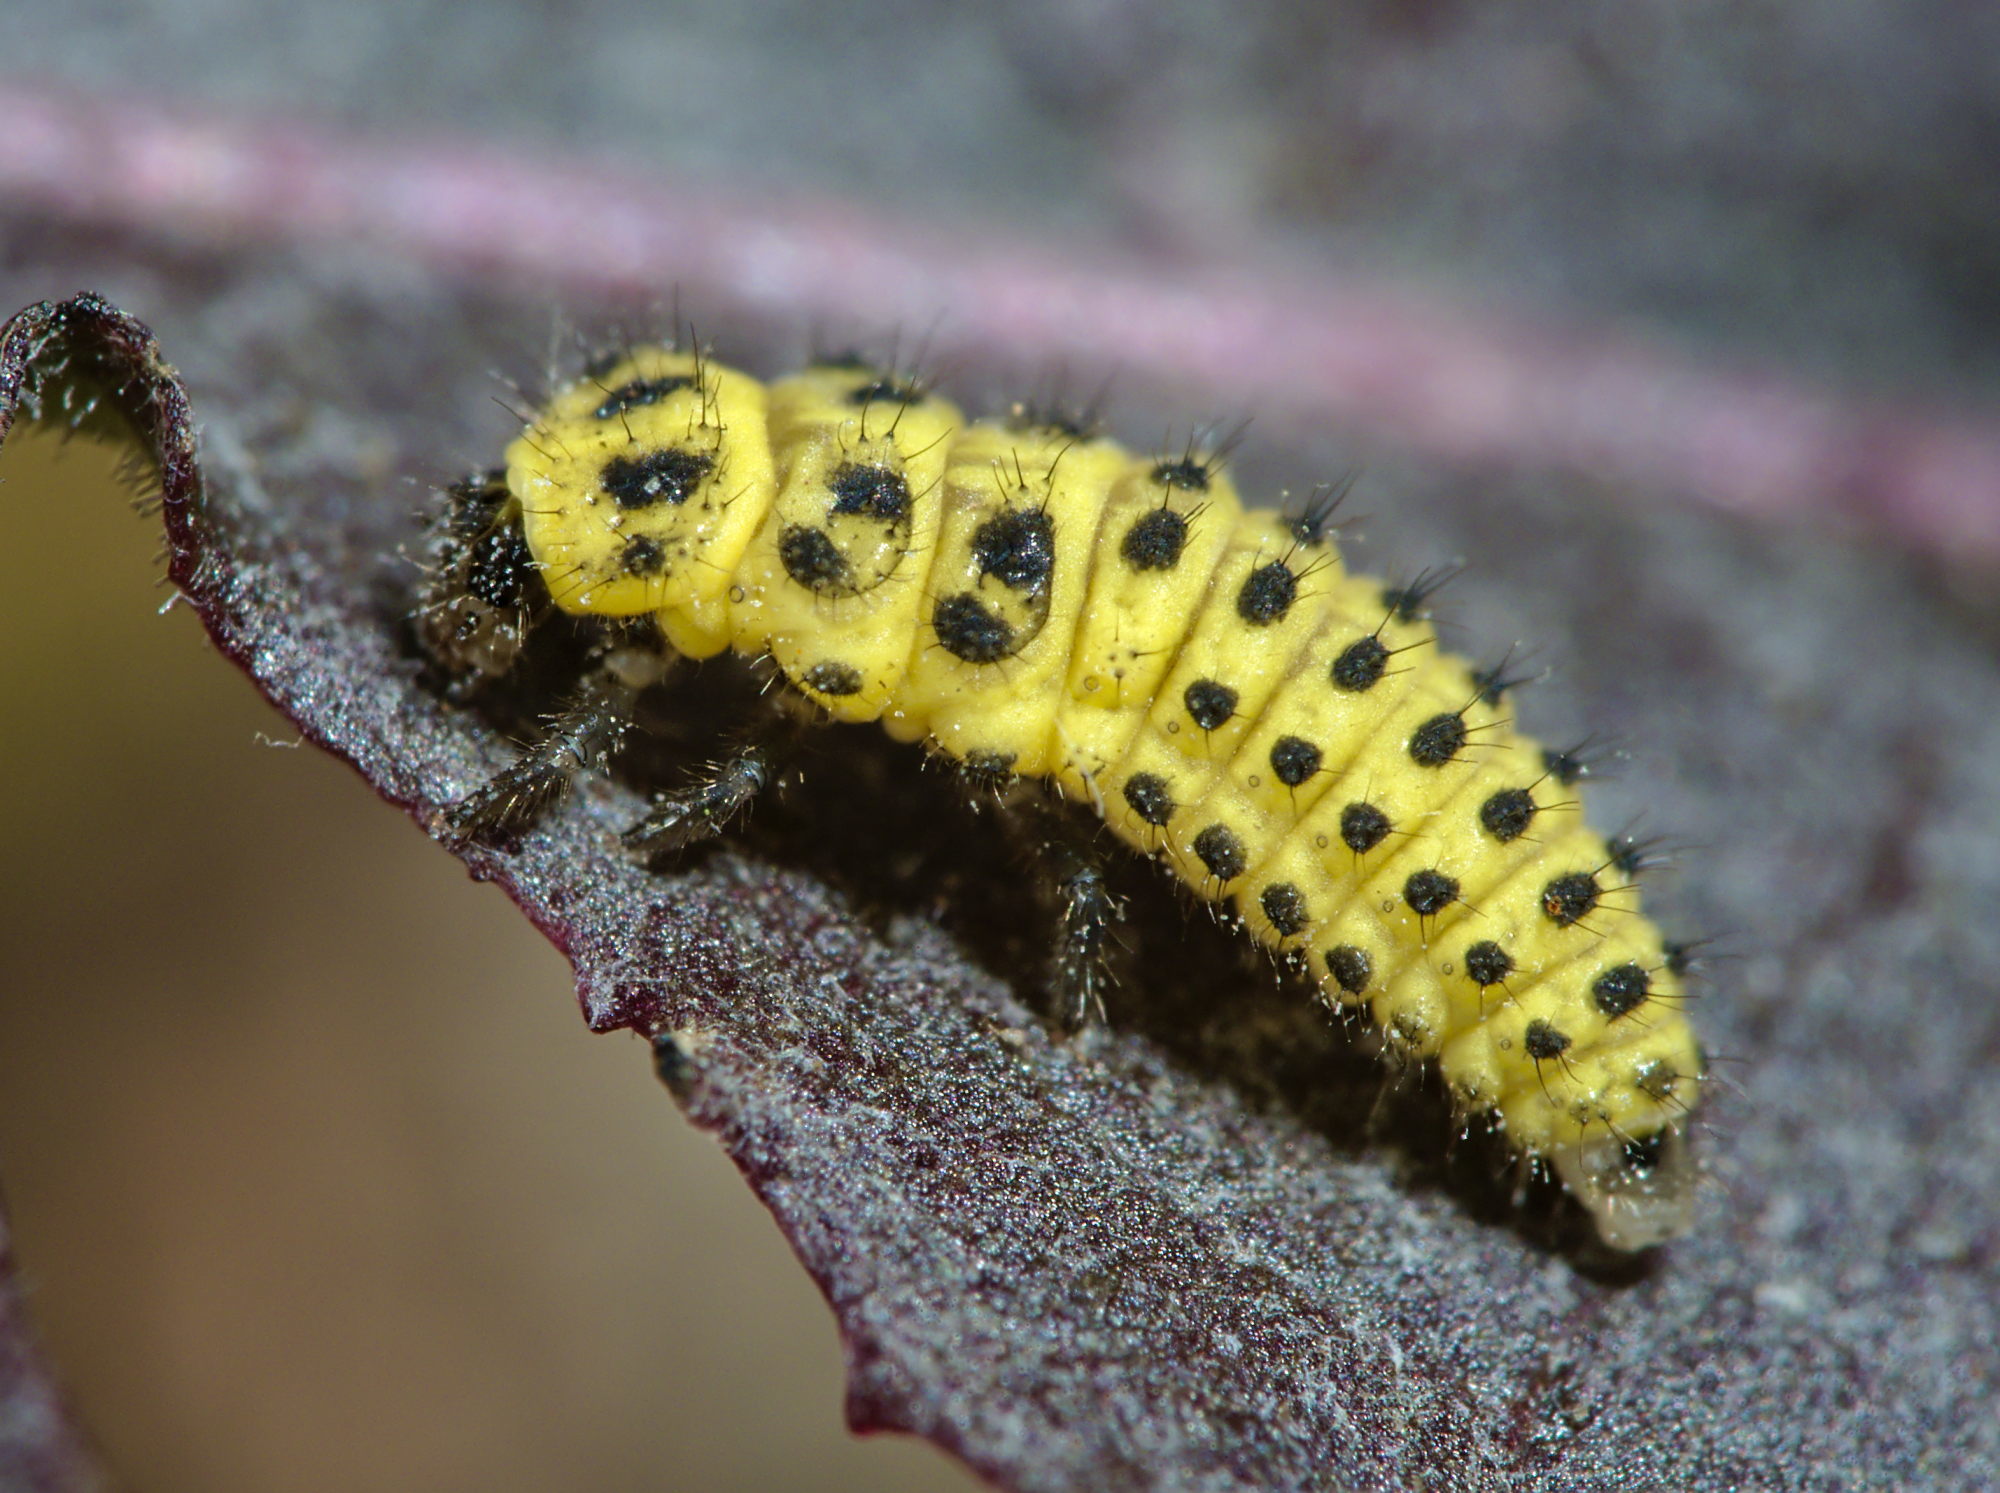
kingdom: Animalia
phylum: Arthropoda
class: Insecta
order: Coleoptera
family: Coccinellidae
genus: Psyllobora
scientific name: Psyllobora vigintiduopunctata
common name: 22-spot ladybird
